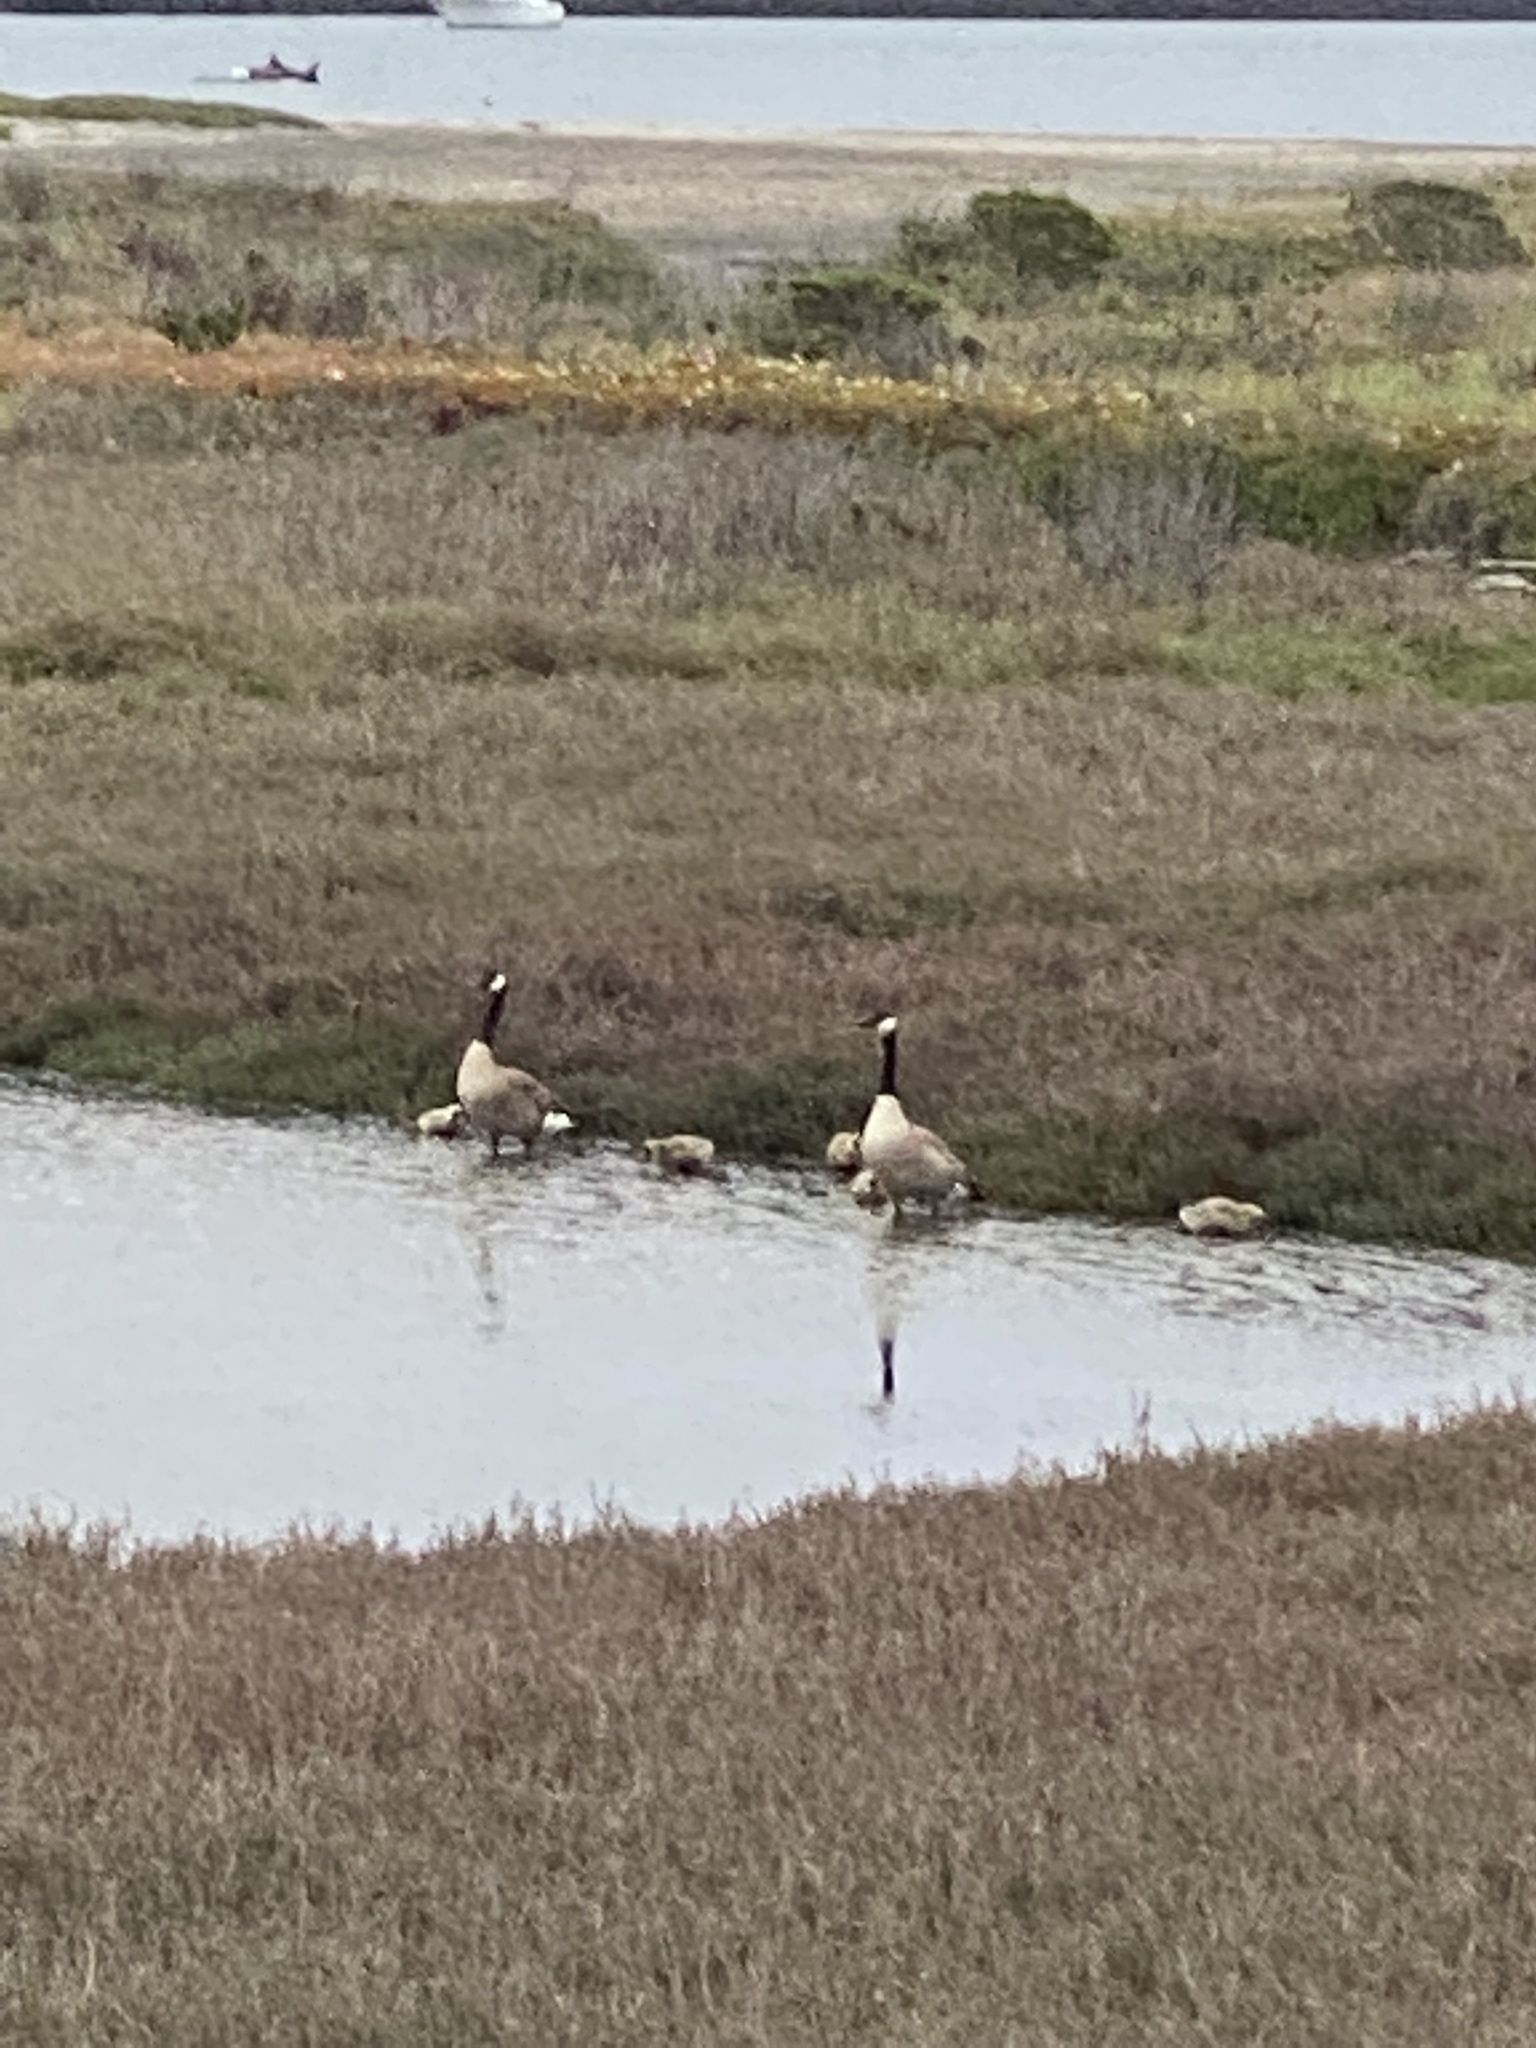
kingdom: Animalia
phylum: Chordata
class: Aves
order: Anseriformes
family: Anatidae
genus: Branta
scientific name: Branta canadensis
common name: Canada goose
